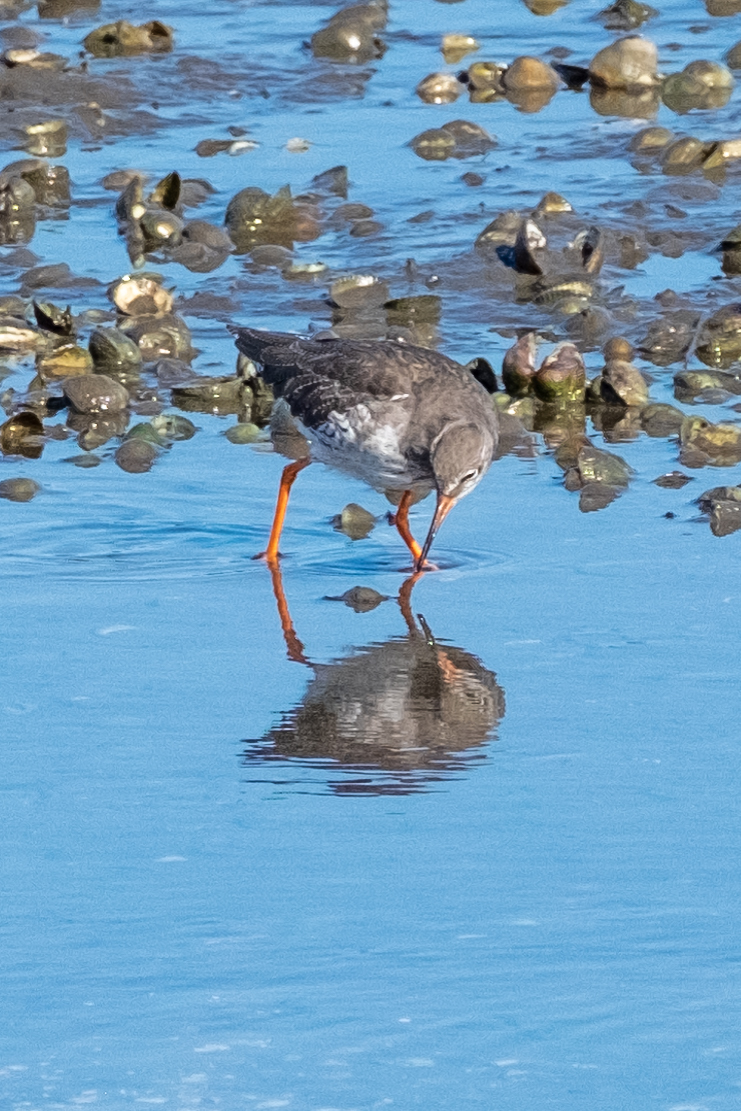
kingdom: Animalia
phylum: Chordata
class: Aves
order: Charadriiformes
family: Scolopacidae
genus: Tringa
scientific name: Tringa totanus
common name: Common redshank
